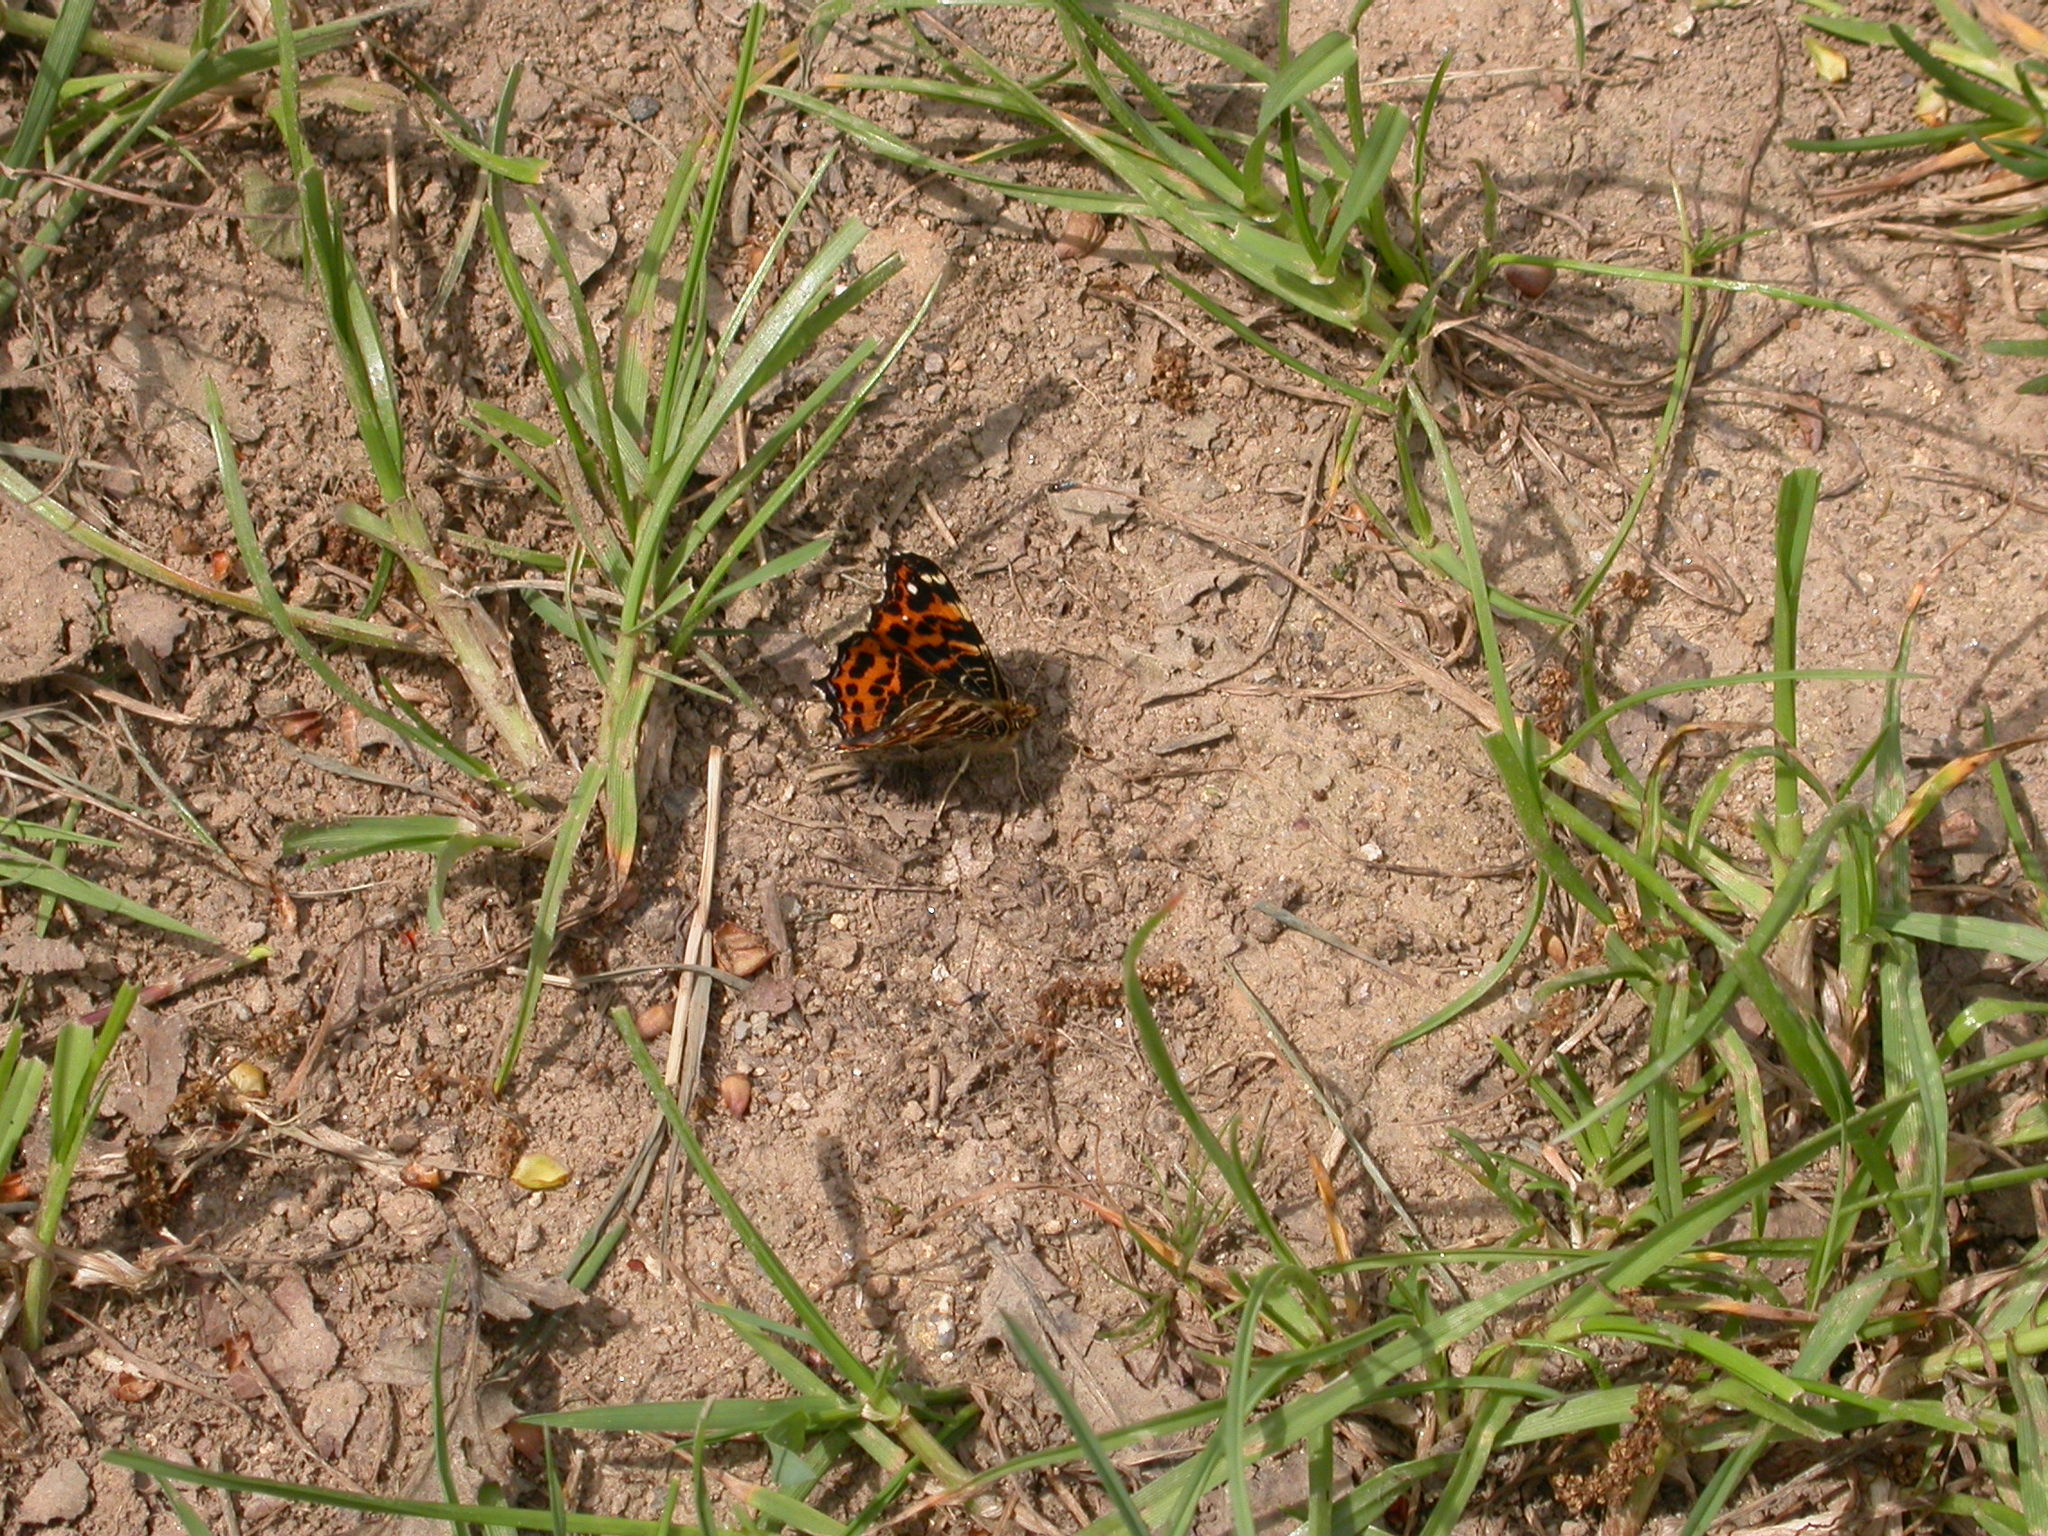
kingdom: Animalia
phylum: Arthropoda
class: Insecta
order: Lepidoptera
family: Nymphalidae
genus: Araschnia
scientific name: Araschnia levana
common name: Map butterfly
